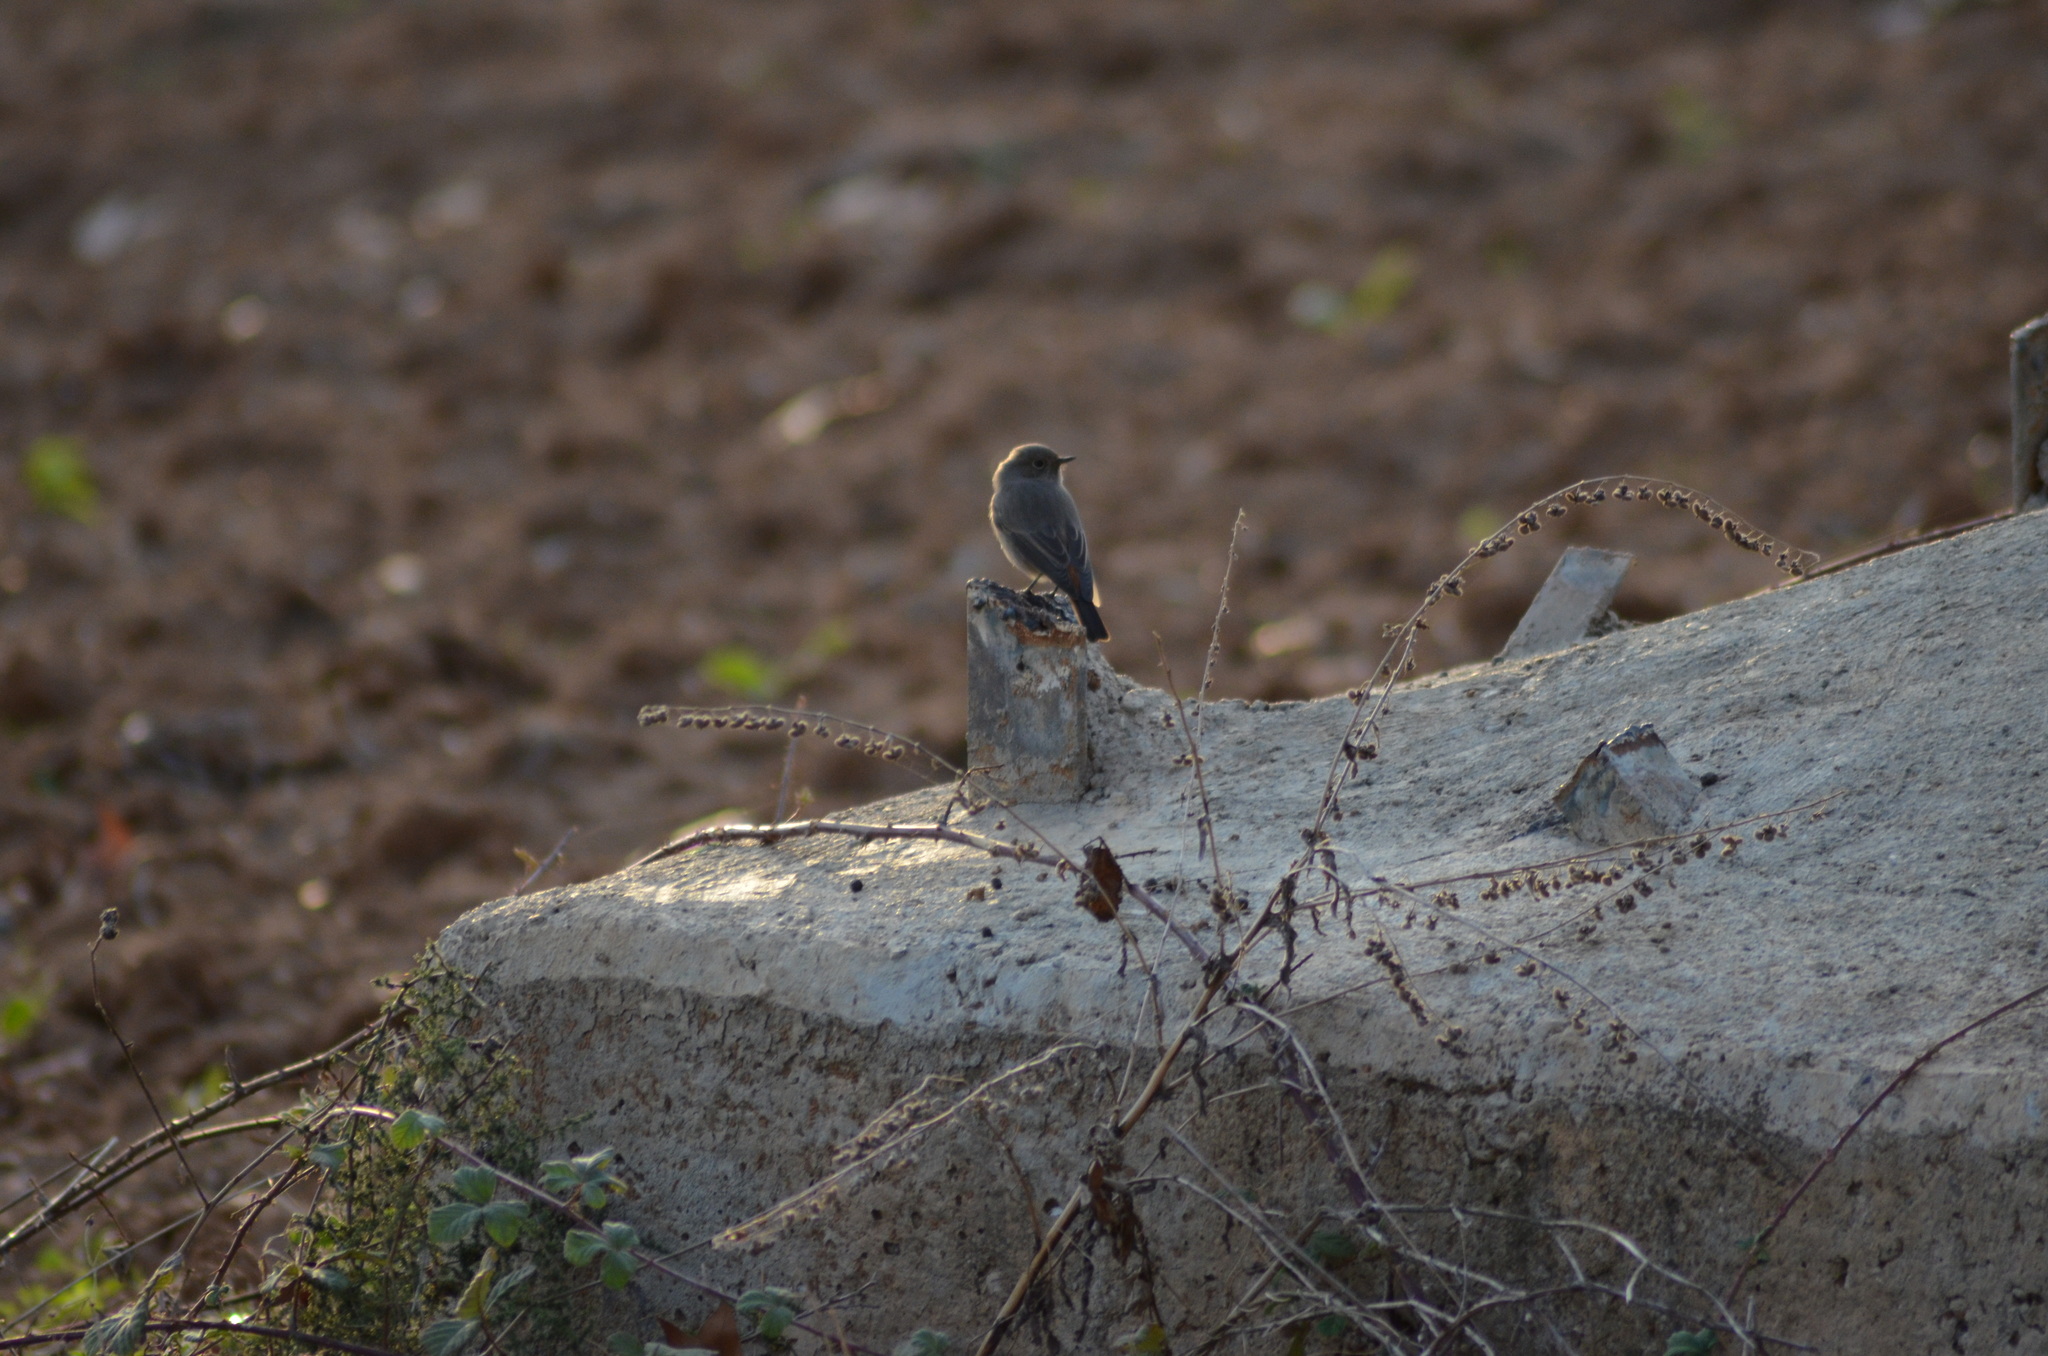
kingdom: Animalia
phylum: Chordata
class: Aves
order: Passeriformes
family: Muscicapidae
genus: Phoenicurus
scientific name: Phoenicurus ochruros
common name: Black redstart
